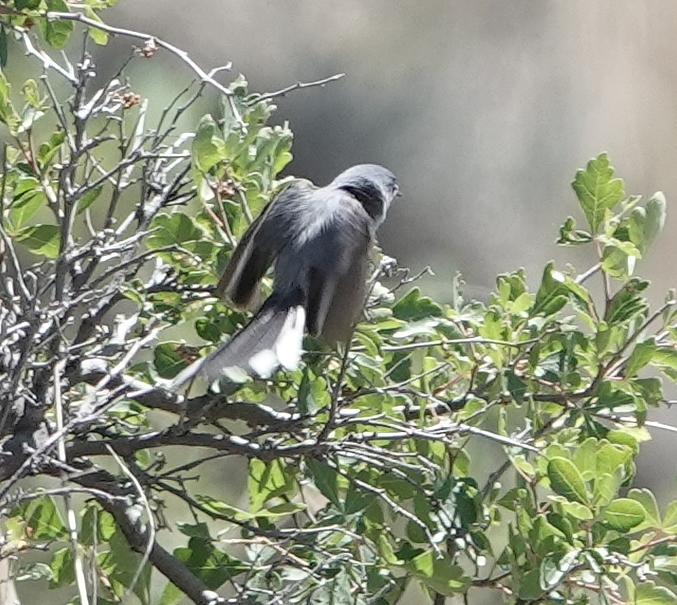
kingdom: Animalia
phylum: Chordata
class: Aves
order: Passeriformes
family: Polioptilidae
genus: Polioptila
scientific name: Polioptila caerulea
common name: Blue-gray gnatcatcher
